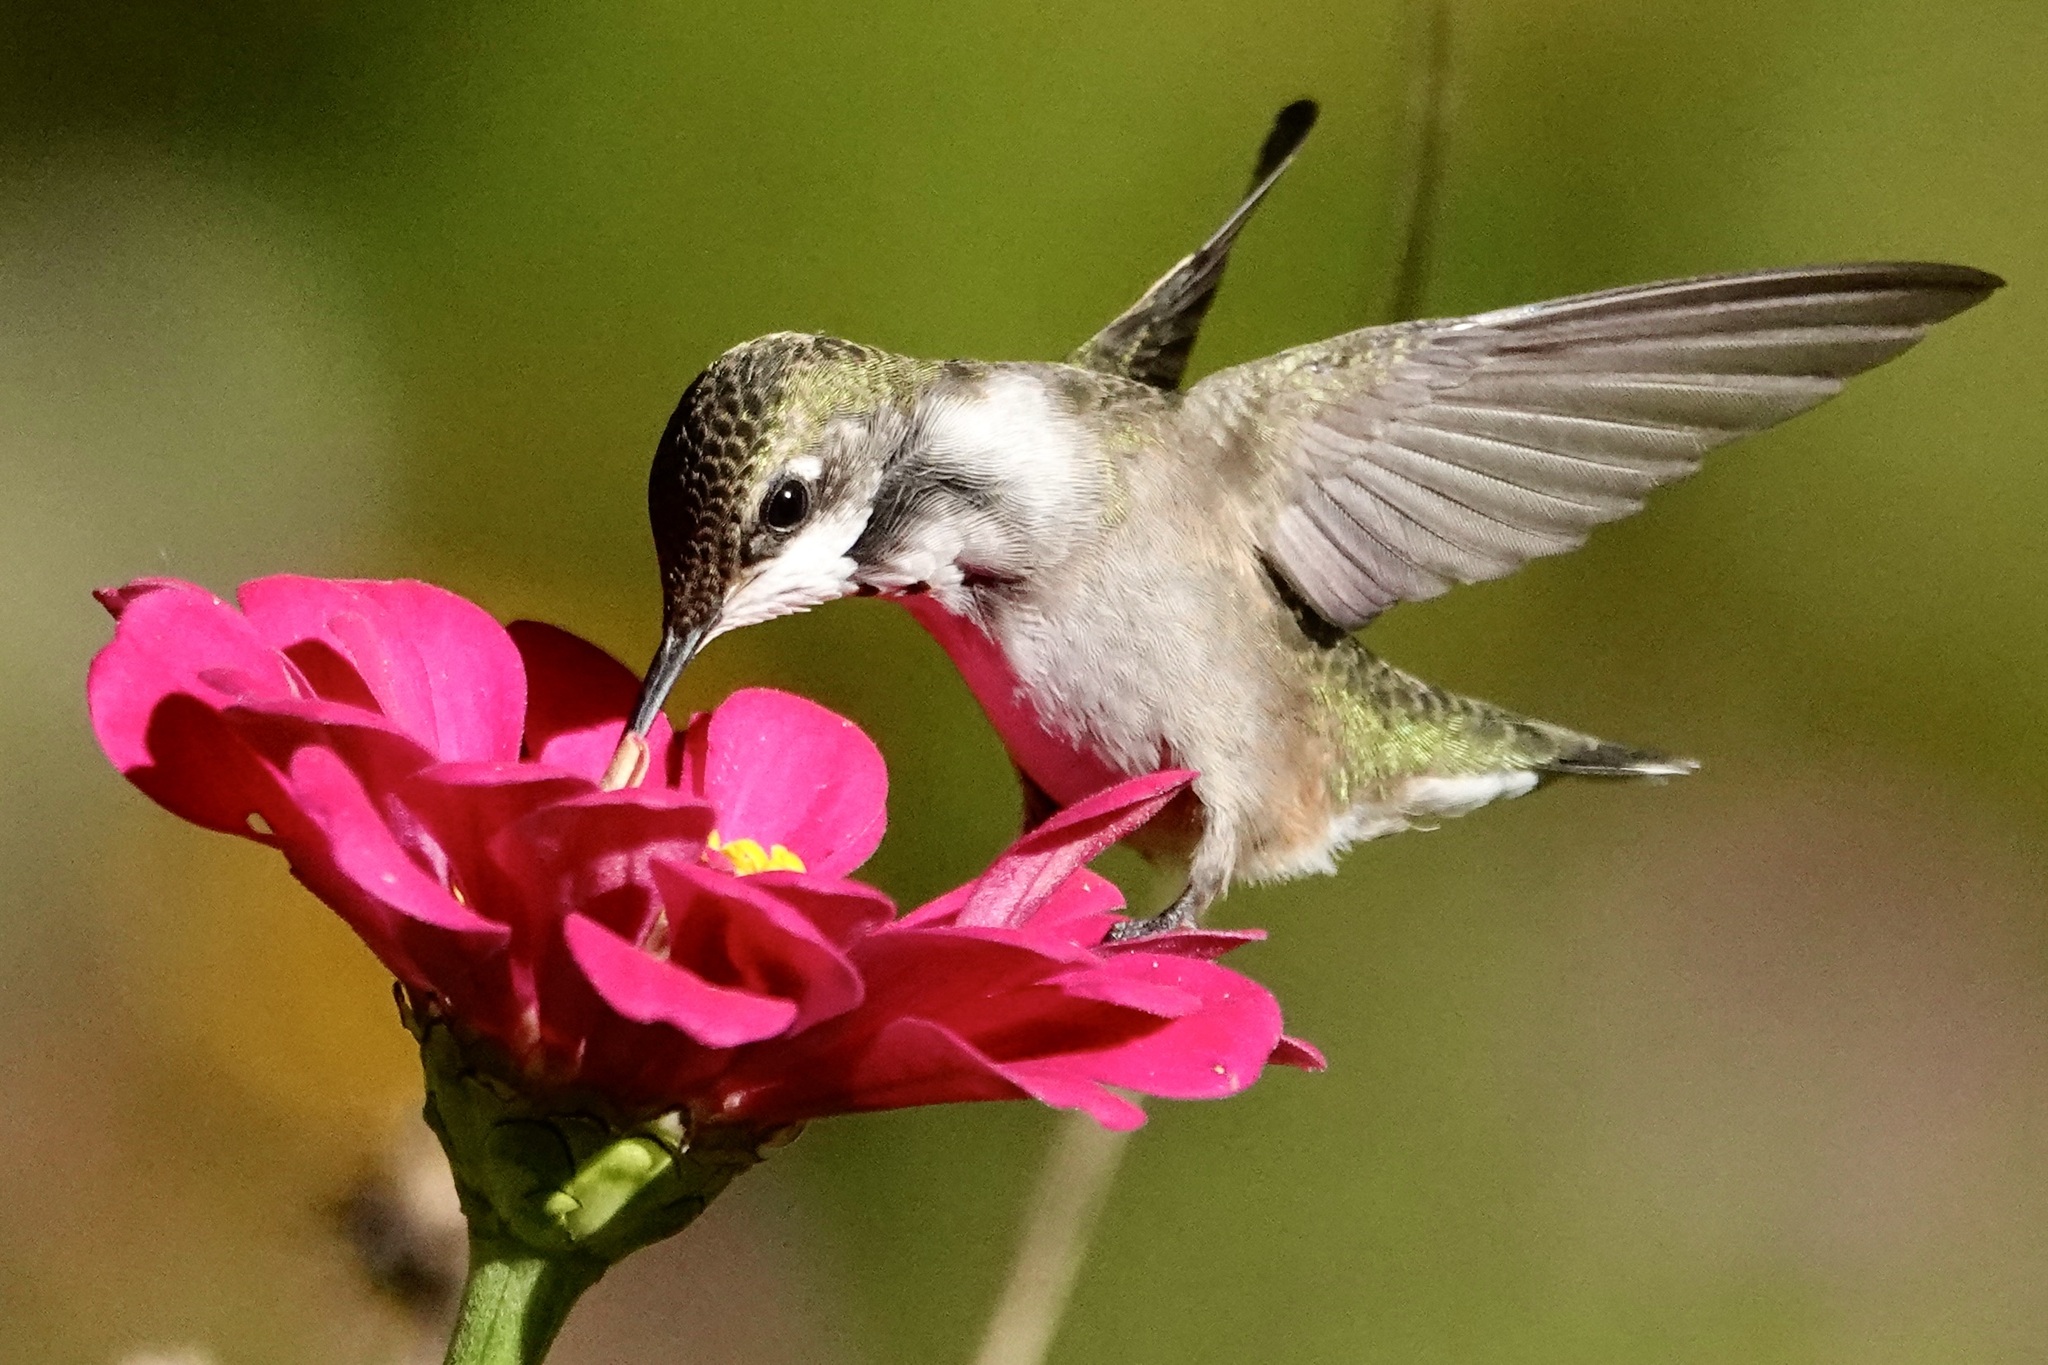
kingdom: Animalia
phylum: Chordata
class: Aves
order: Apodiformes
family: Trochilidae
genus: Archilochus
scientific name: Archilochus colubris
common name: Ruby-throated hummingbird
